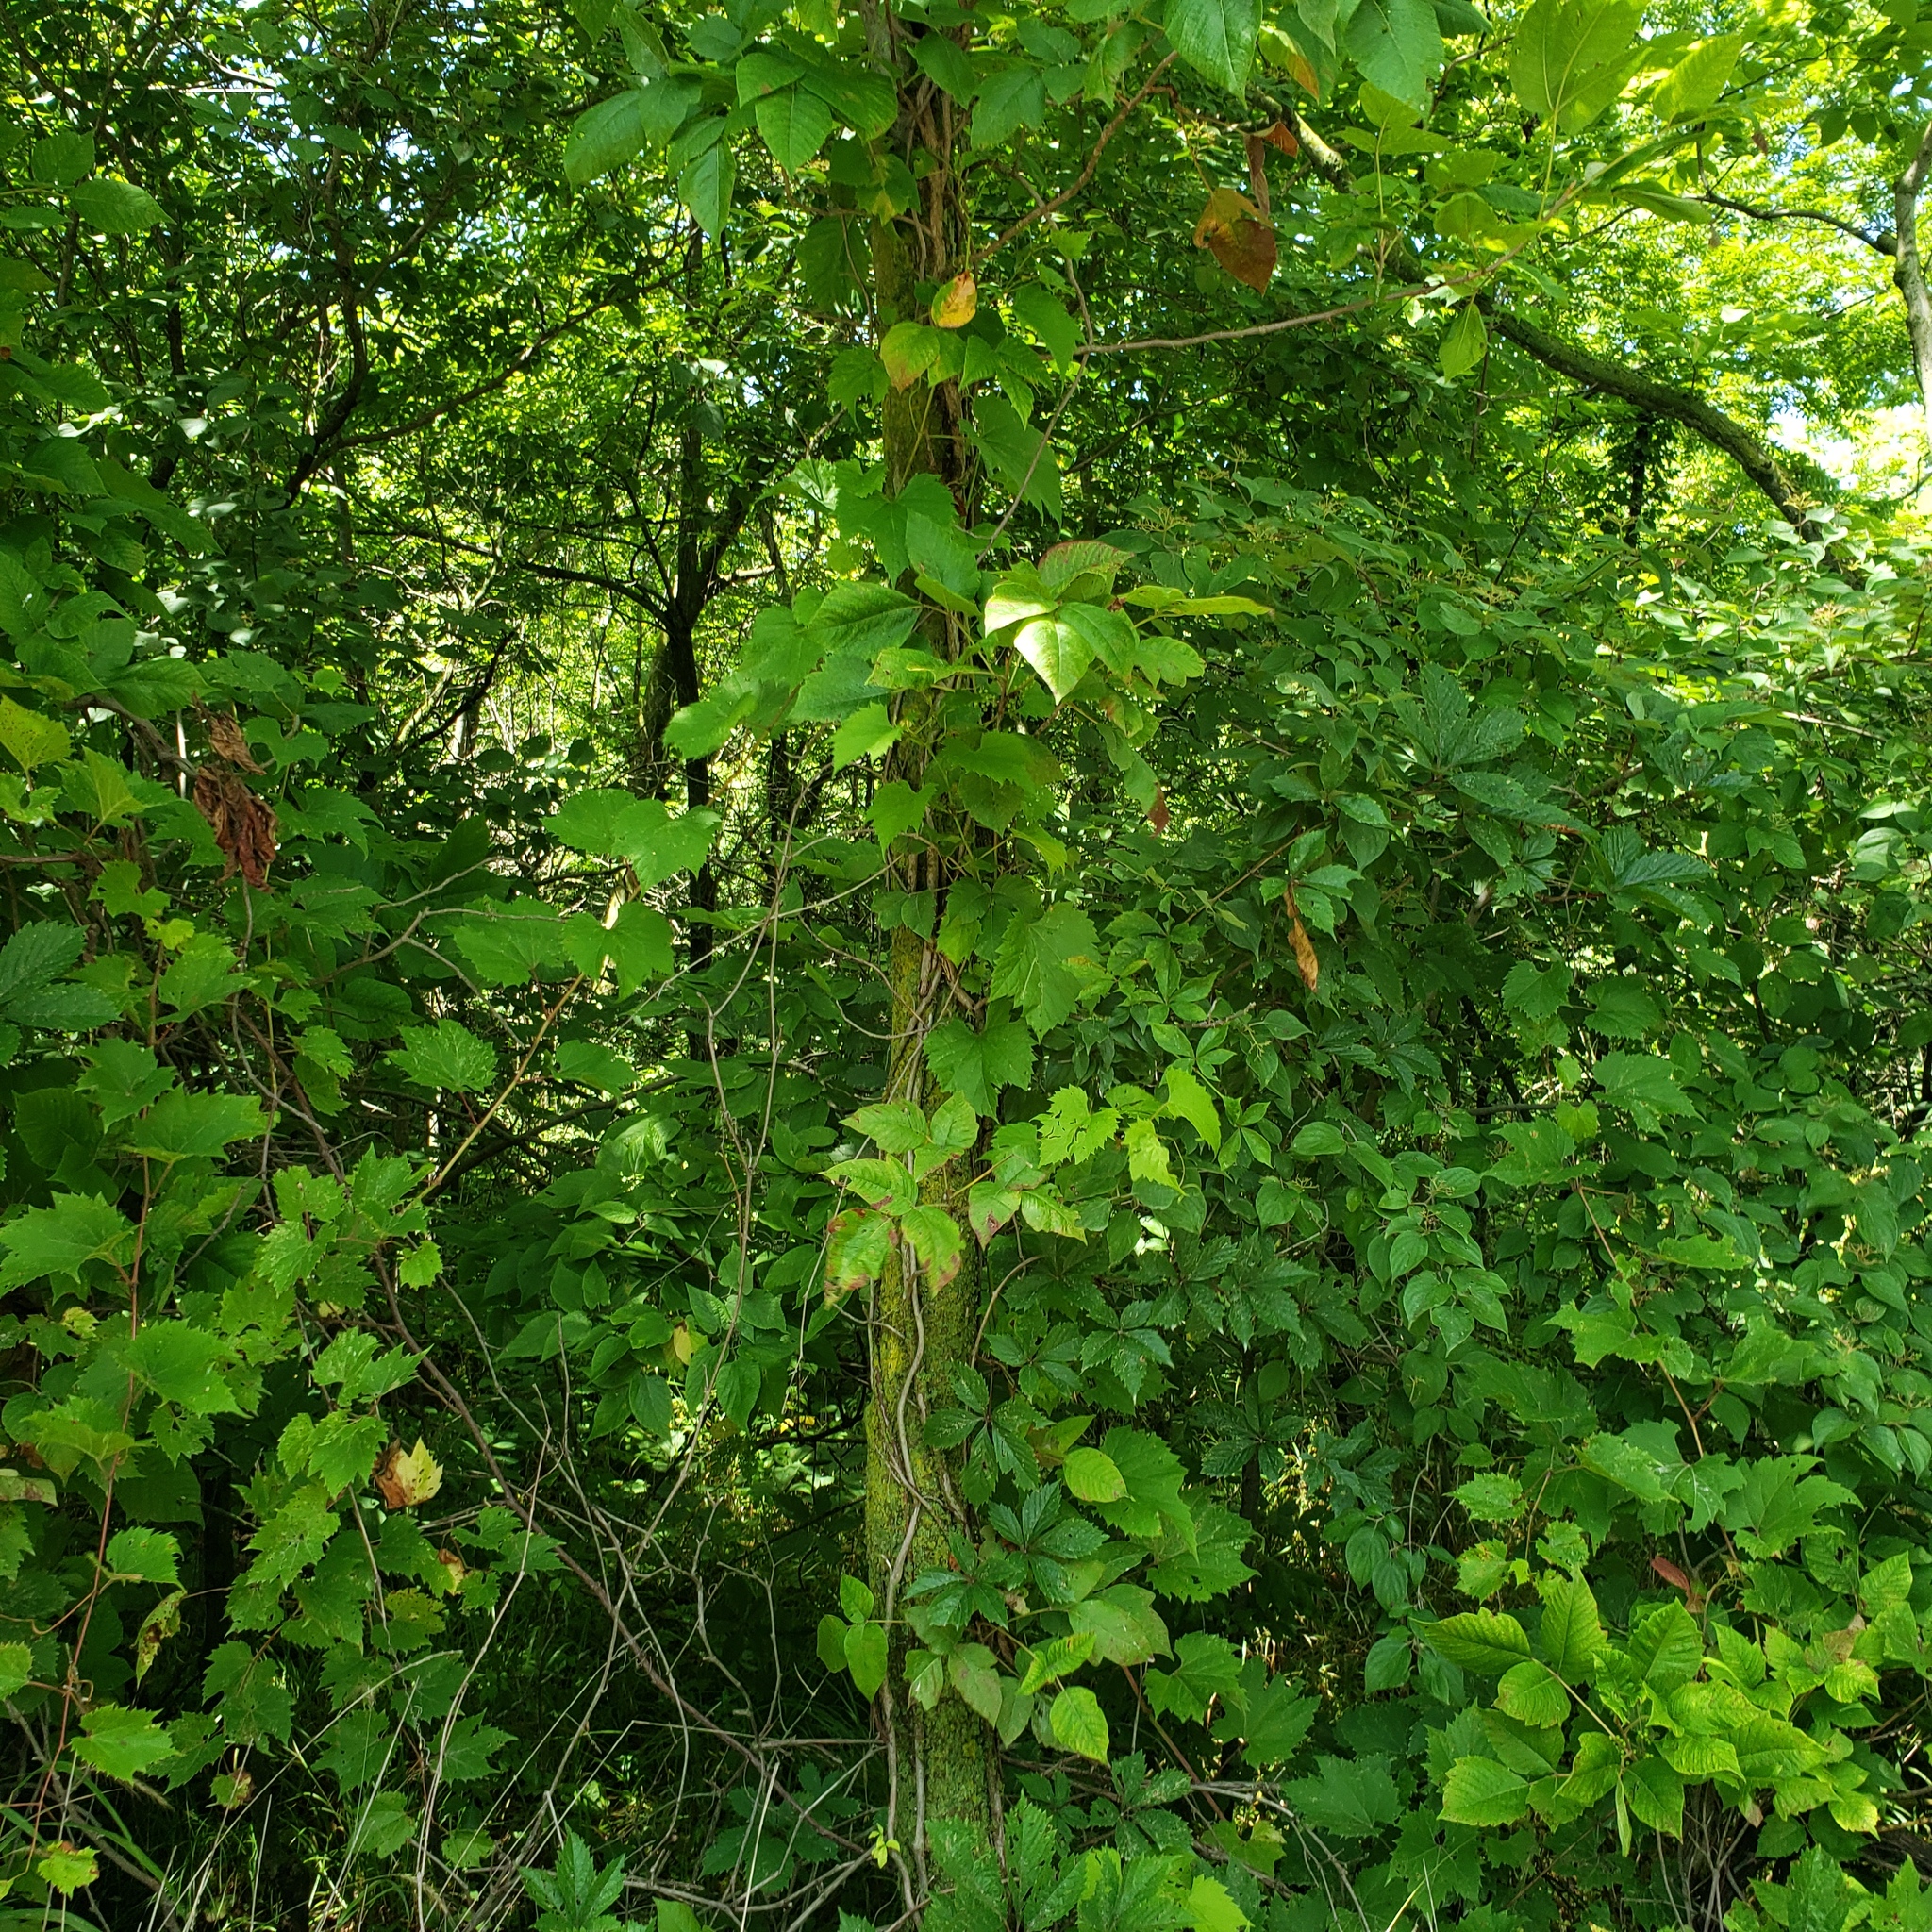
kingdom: Plantae
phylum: Tracheophyta
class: Magnoliopsida
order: Sapindales
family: Anacardiaceae
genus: Toxicodendron
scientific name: Toxicodendron radicans
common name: Poison ivy
